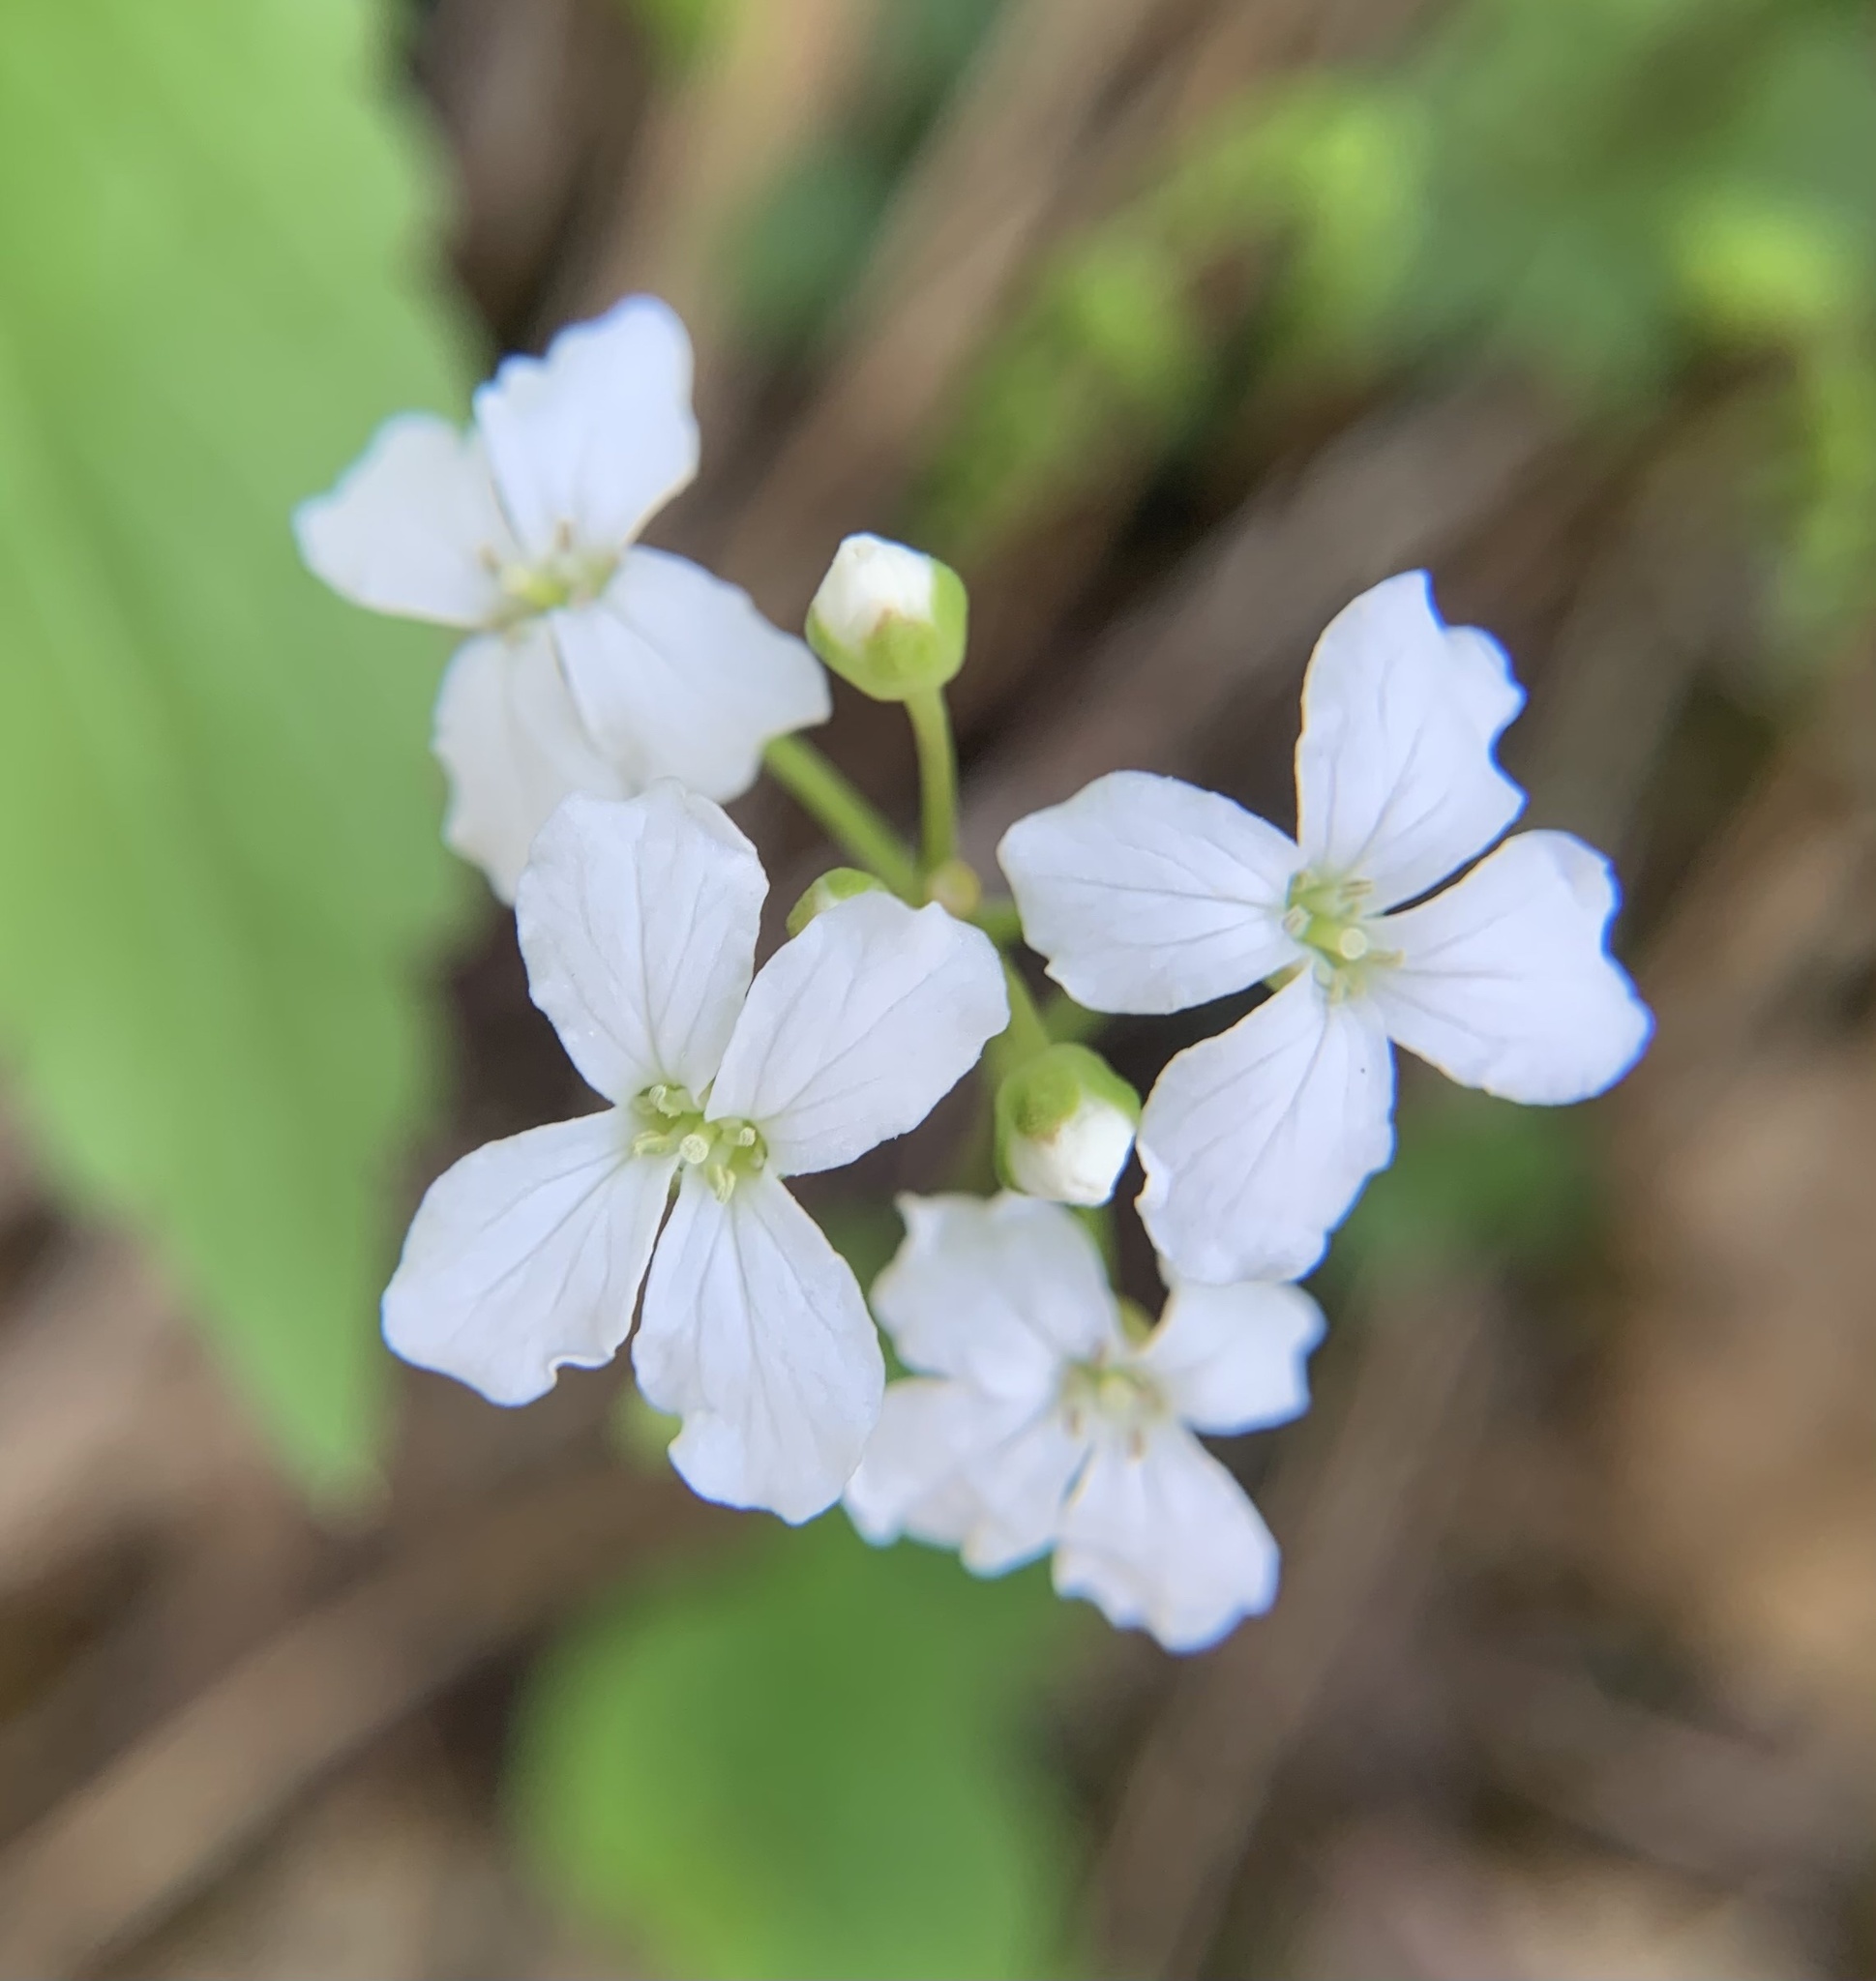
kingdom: Plantae
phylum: Tracheophyta
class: Magnoliopsida
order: Brassicales
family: Brassicaceae
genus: Cardamine
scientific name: Cardamine trifolia
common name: Trefoil cress
